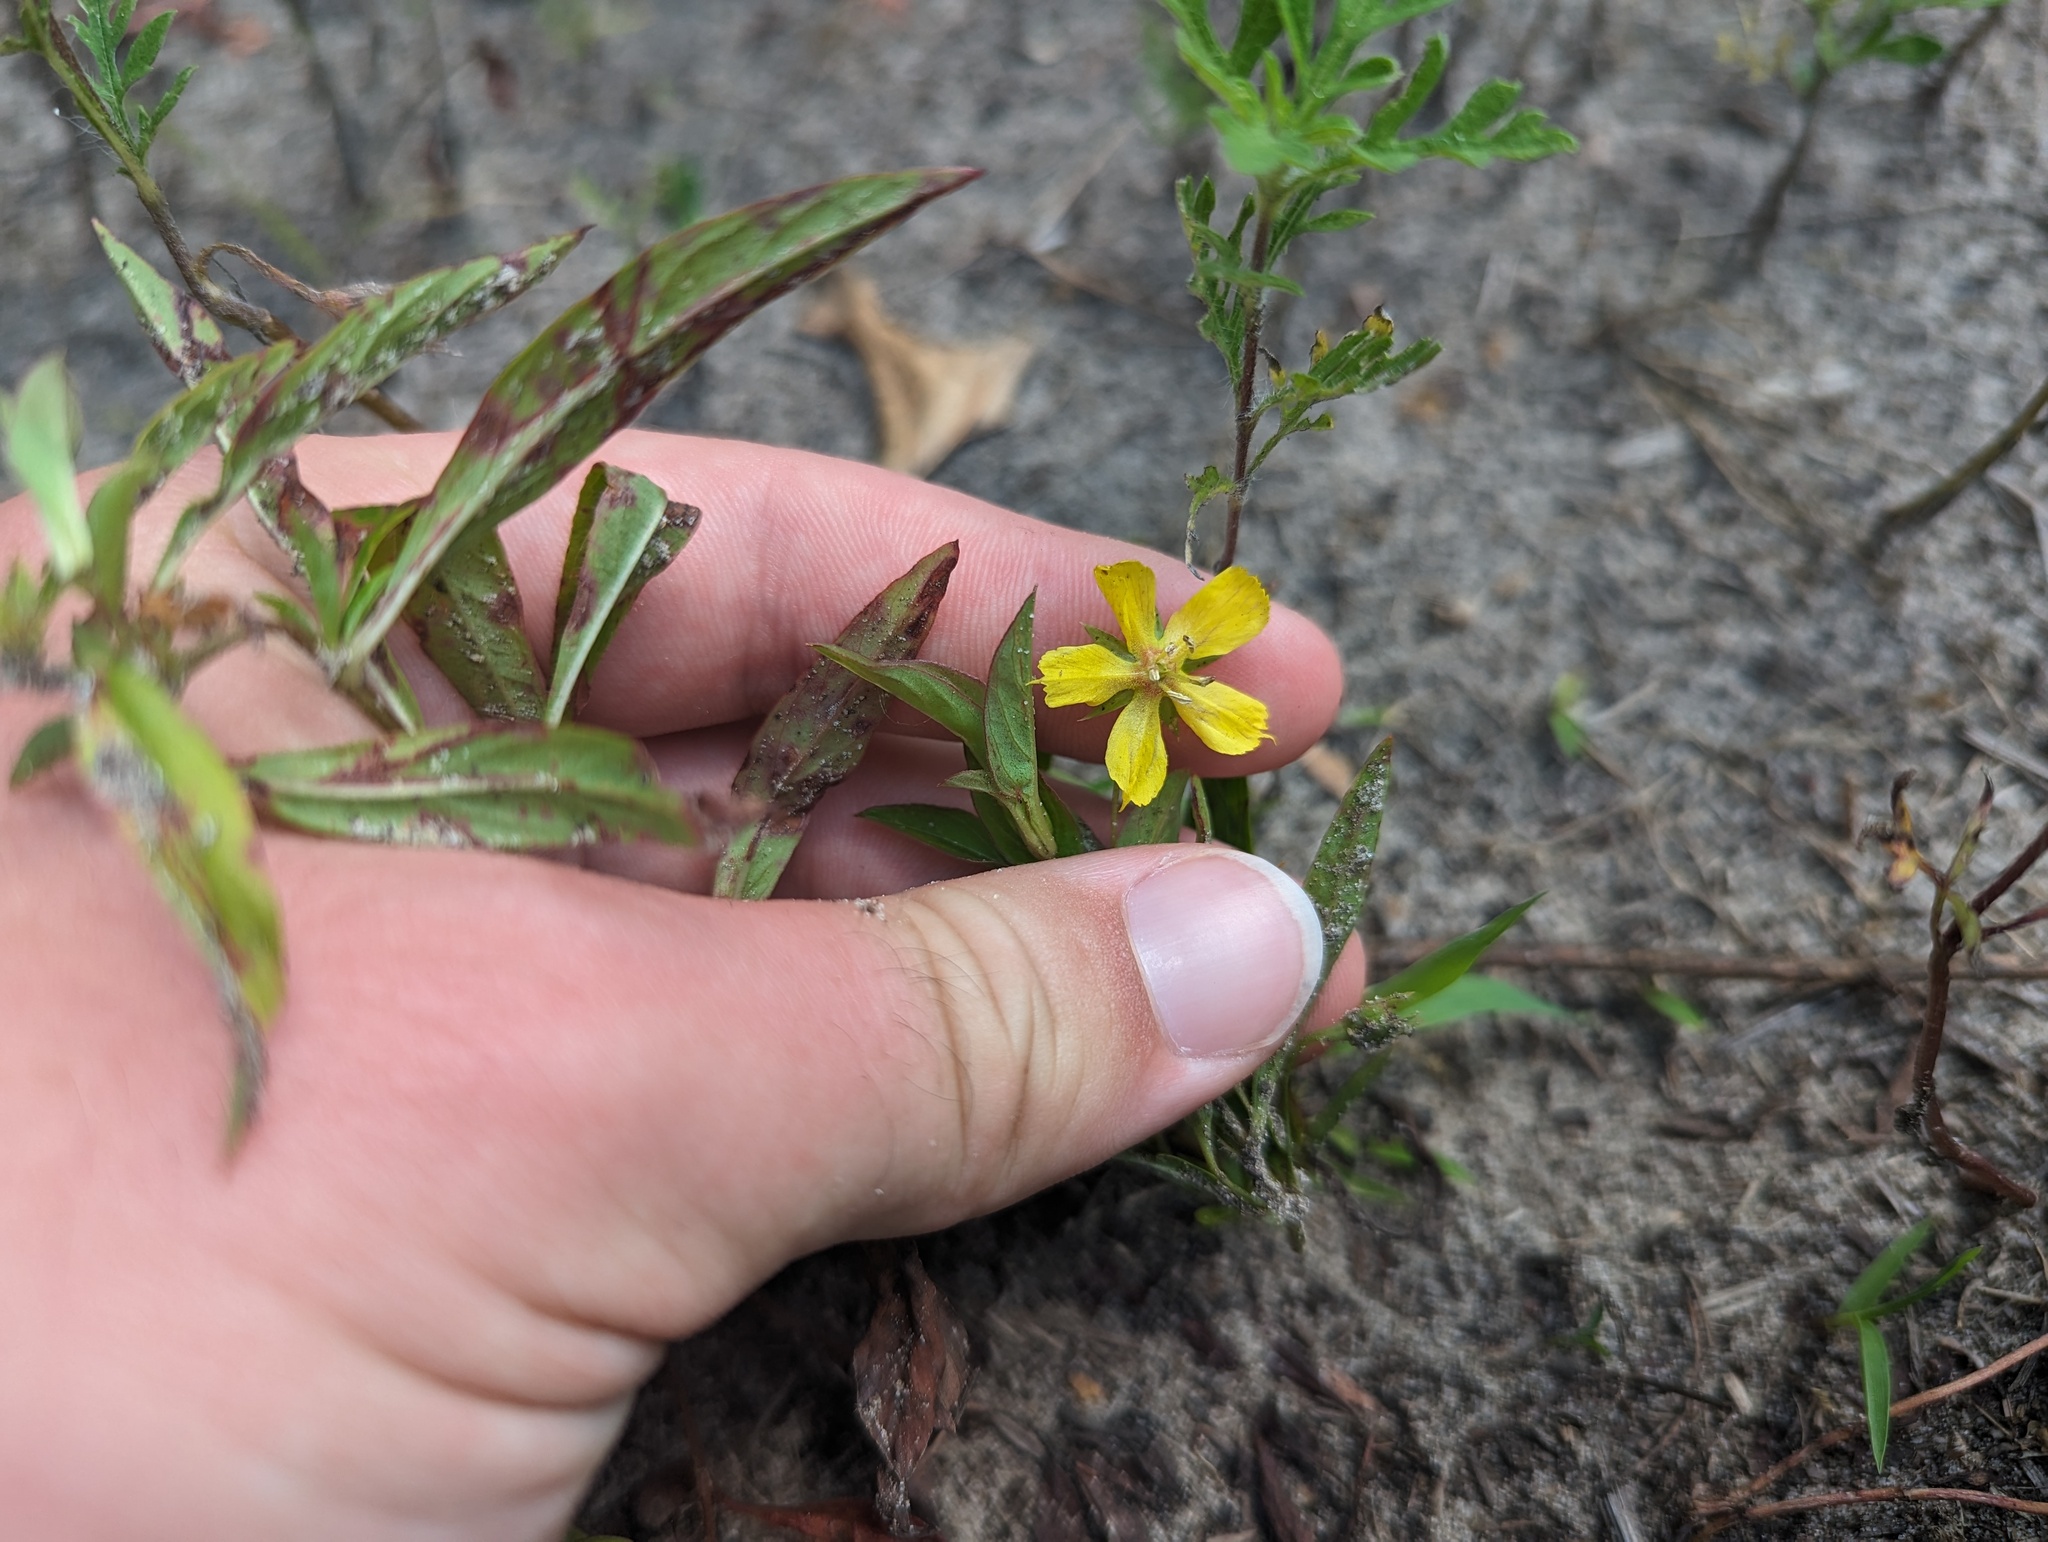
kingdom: Plantae
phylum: Tracheophyta
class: Magnoliopsida
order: Ericales
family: Primulaceae
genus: Lysimachia
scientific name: Lysimachia lanceolata
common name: Lance-leaved loosestrife
